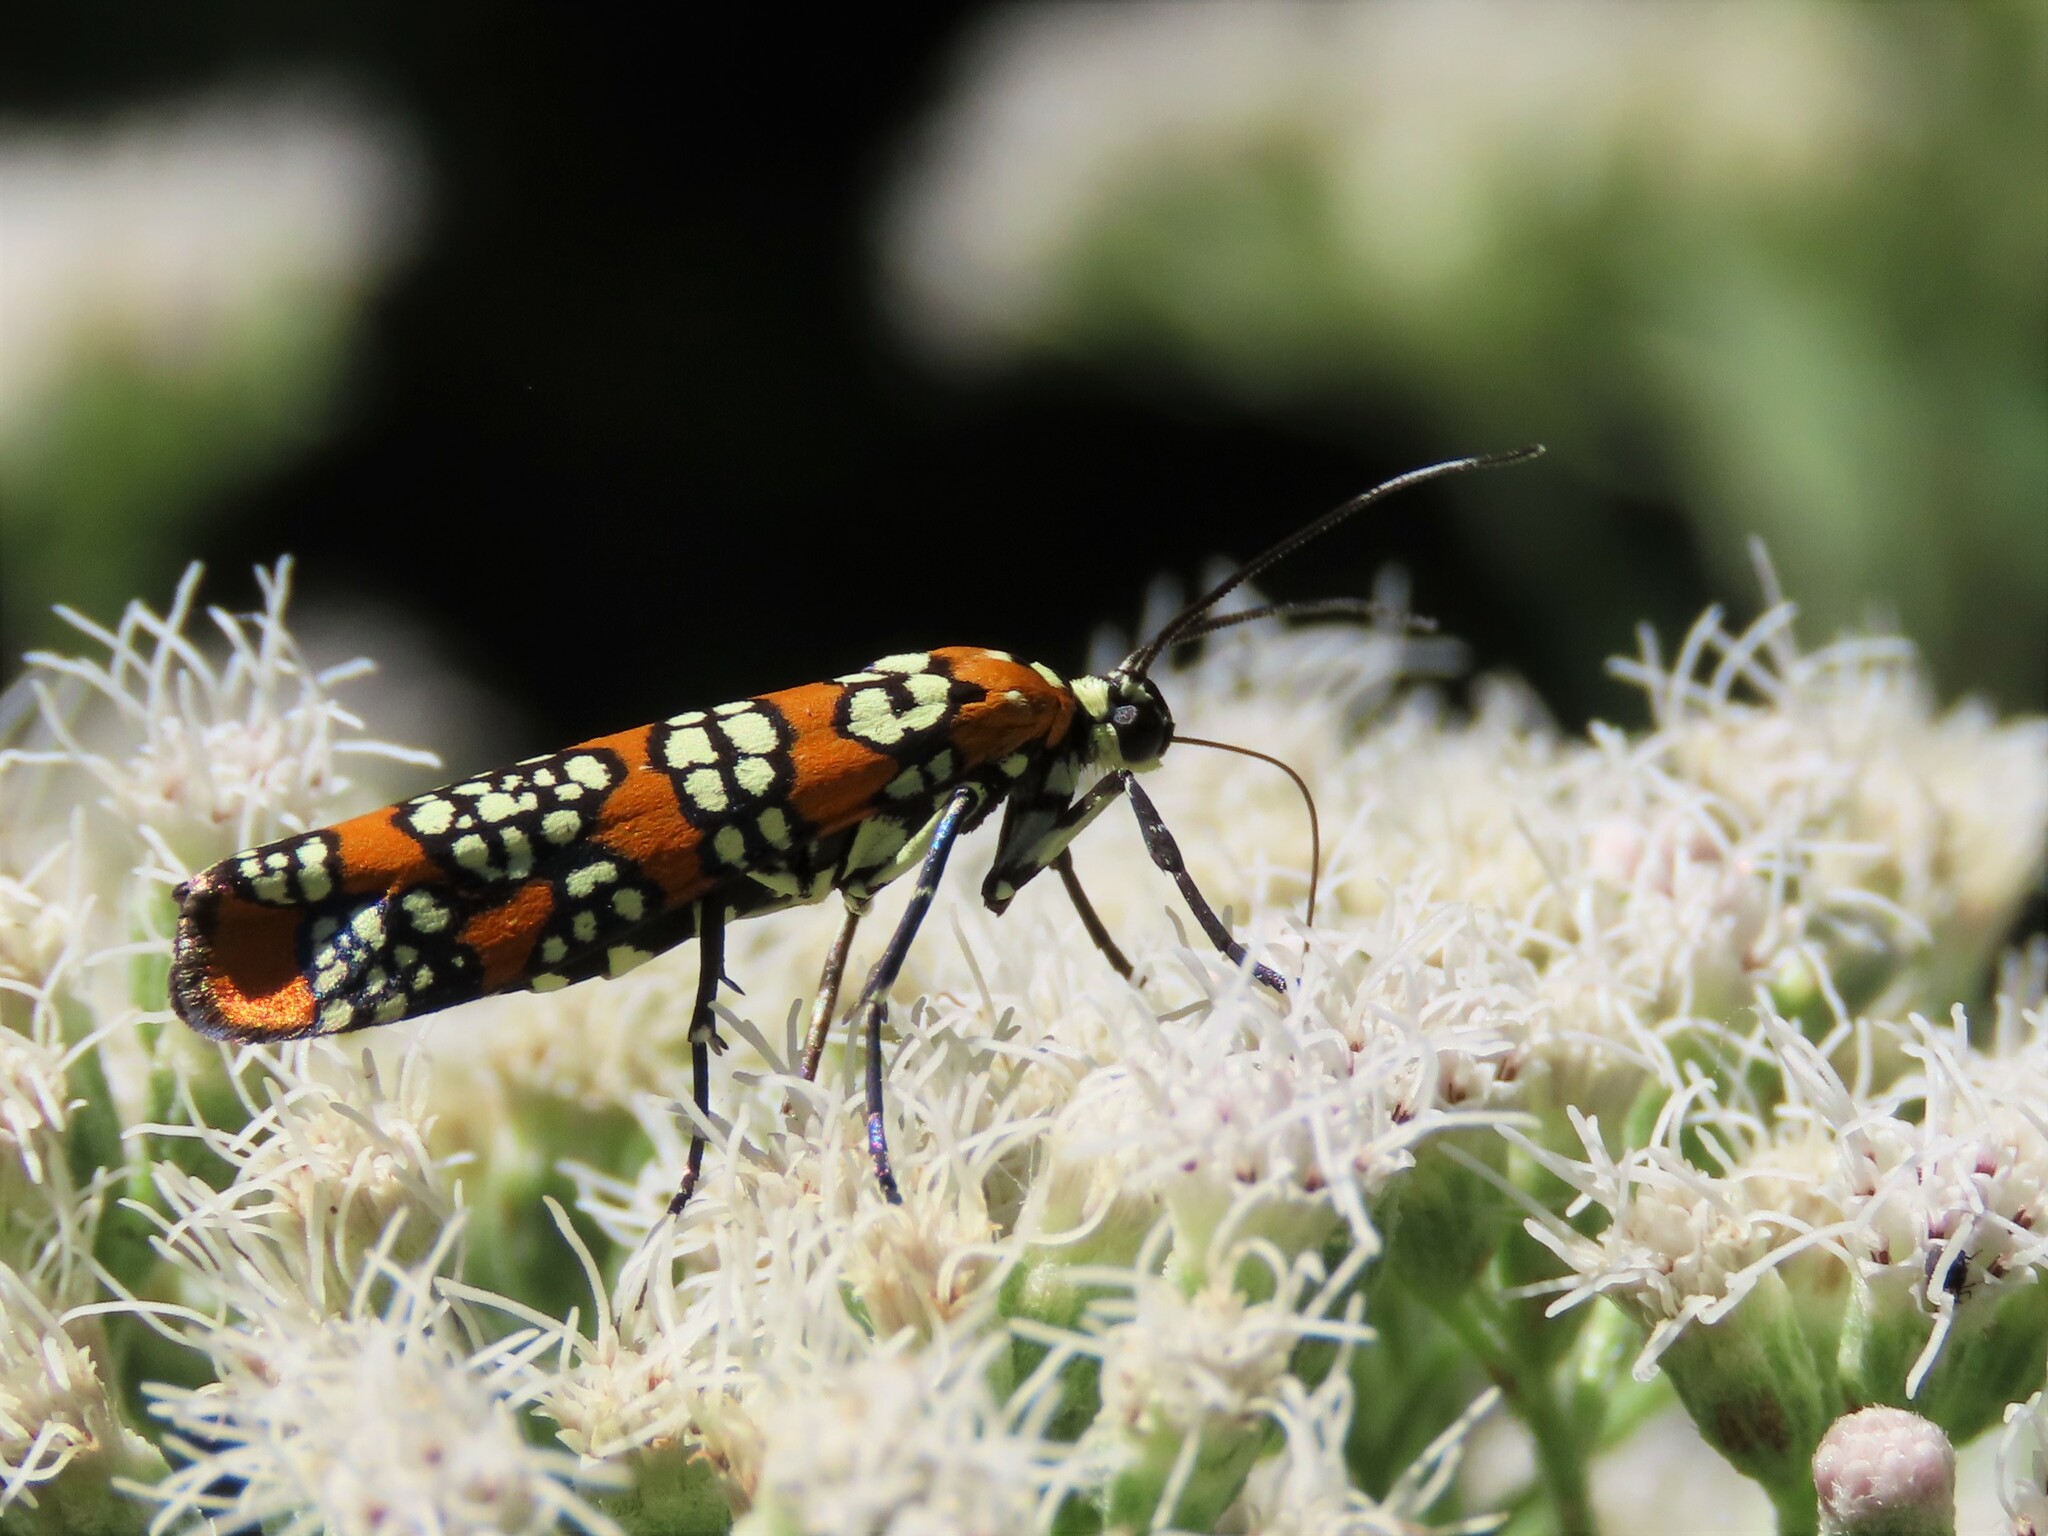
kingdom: Animalia
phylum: Arthropoda
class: Insecta
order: Lepidoptera
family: Attevidae
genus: Atteva
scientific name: Atteva punctella
